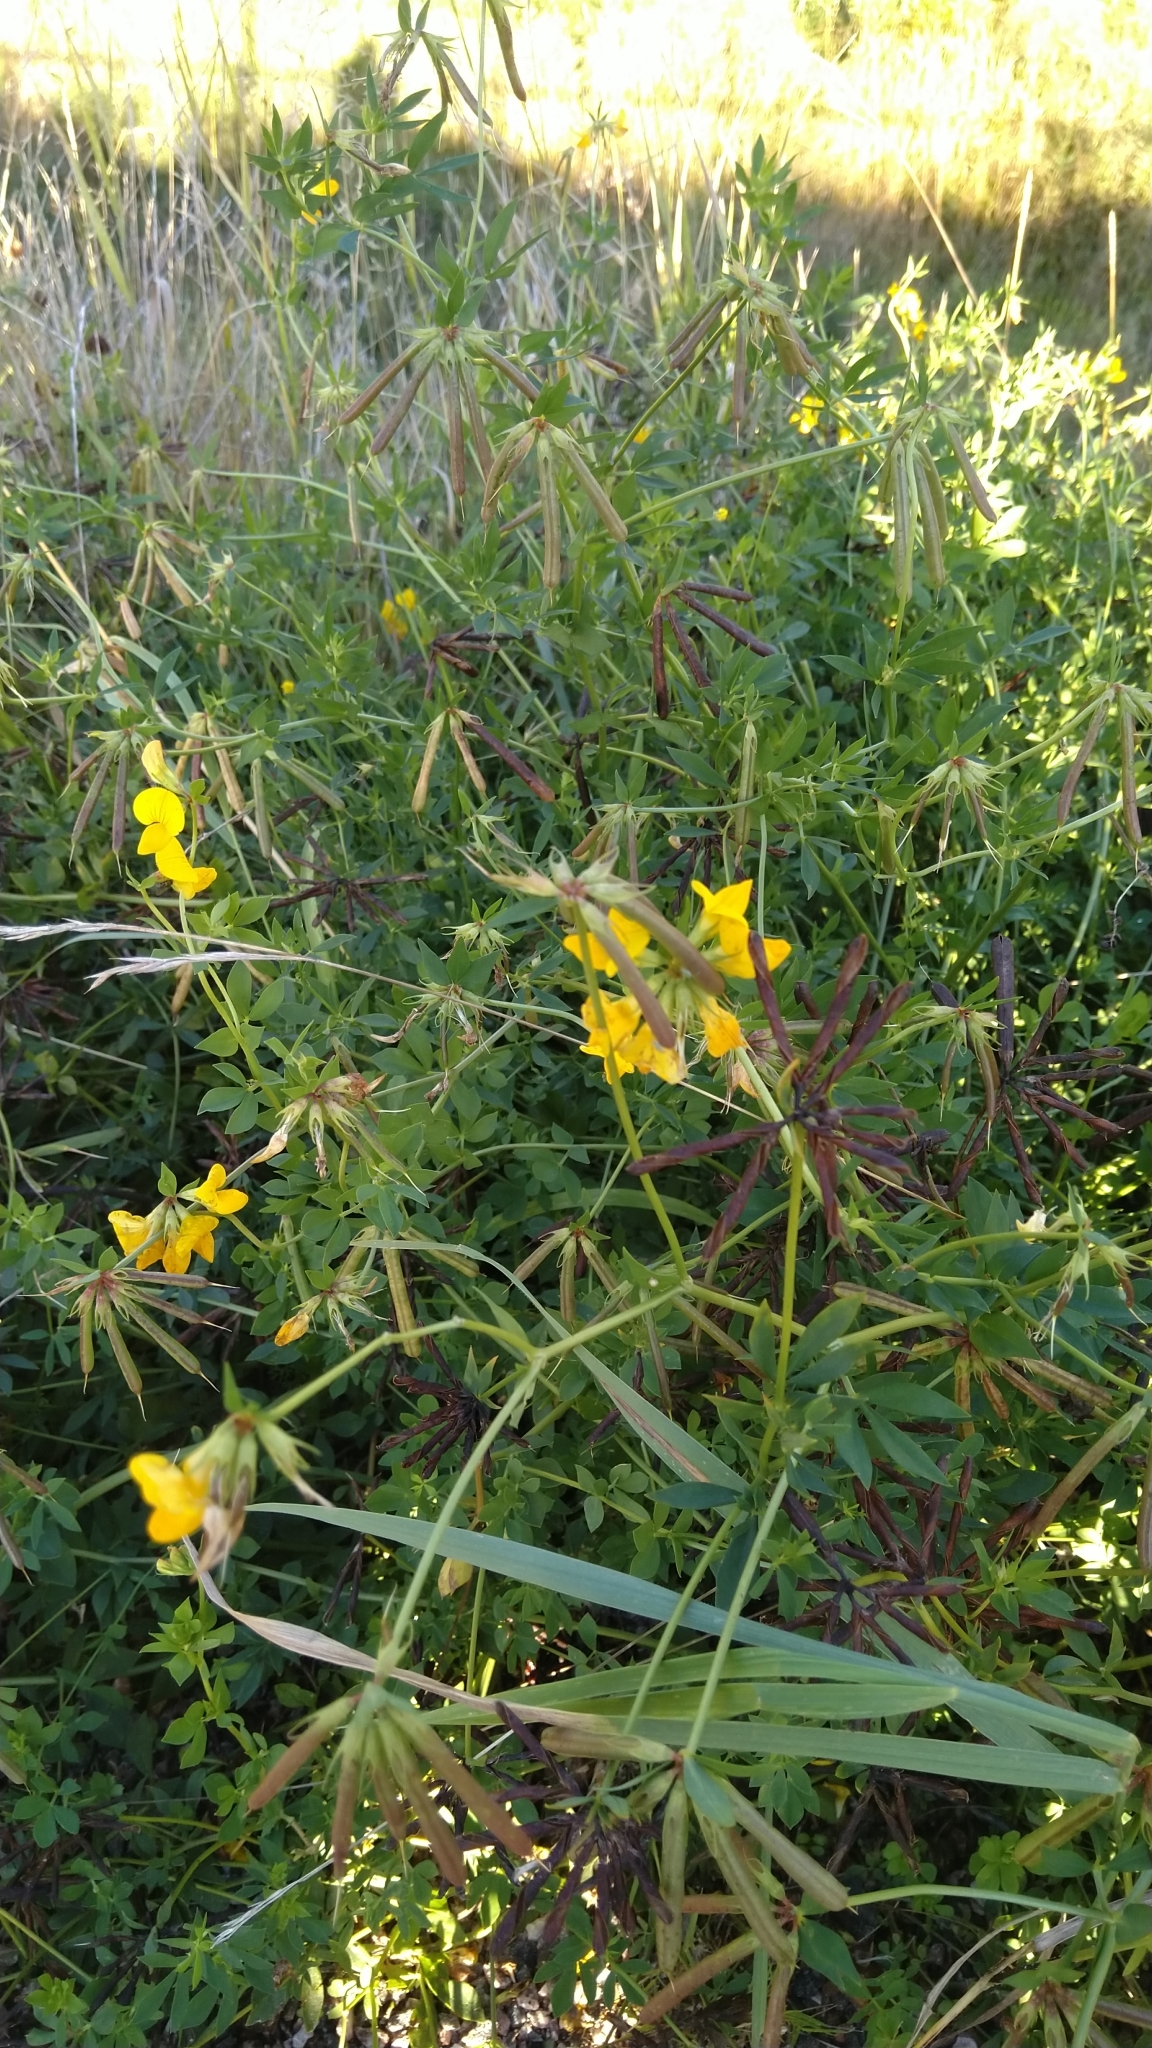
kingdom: Plantae
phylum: Tracheophyta
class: Magnoliopsida
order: Fabales
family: Fabaceae
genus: Lotus
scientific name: Lotus corniculatus
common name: Common bird's-foot-trefoil
